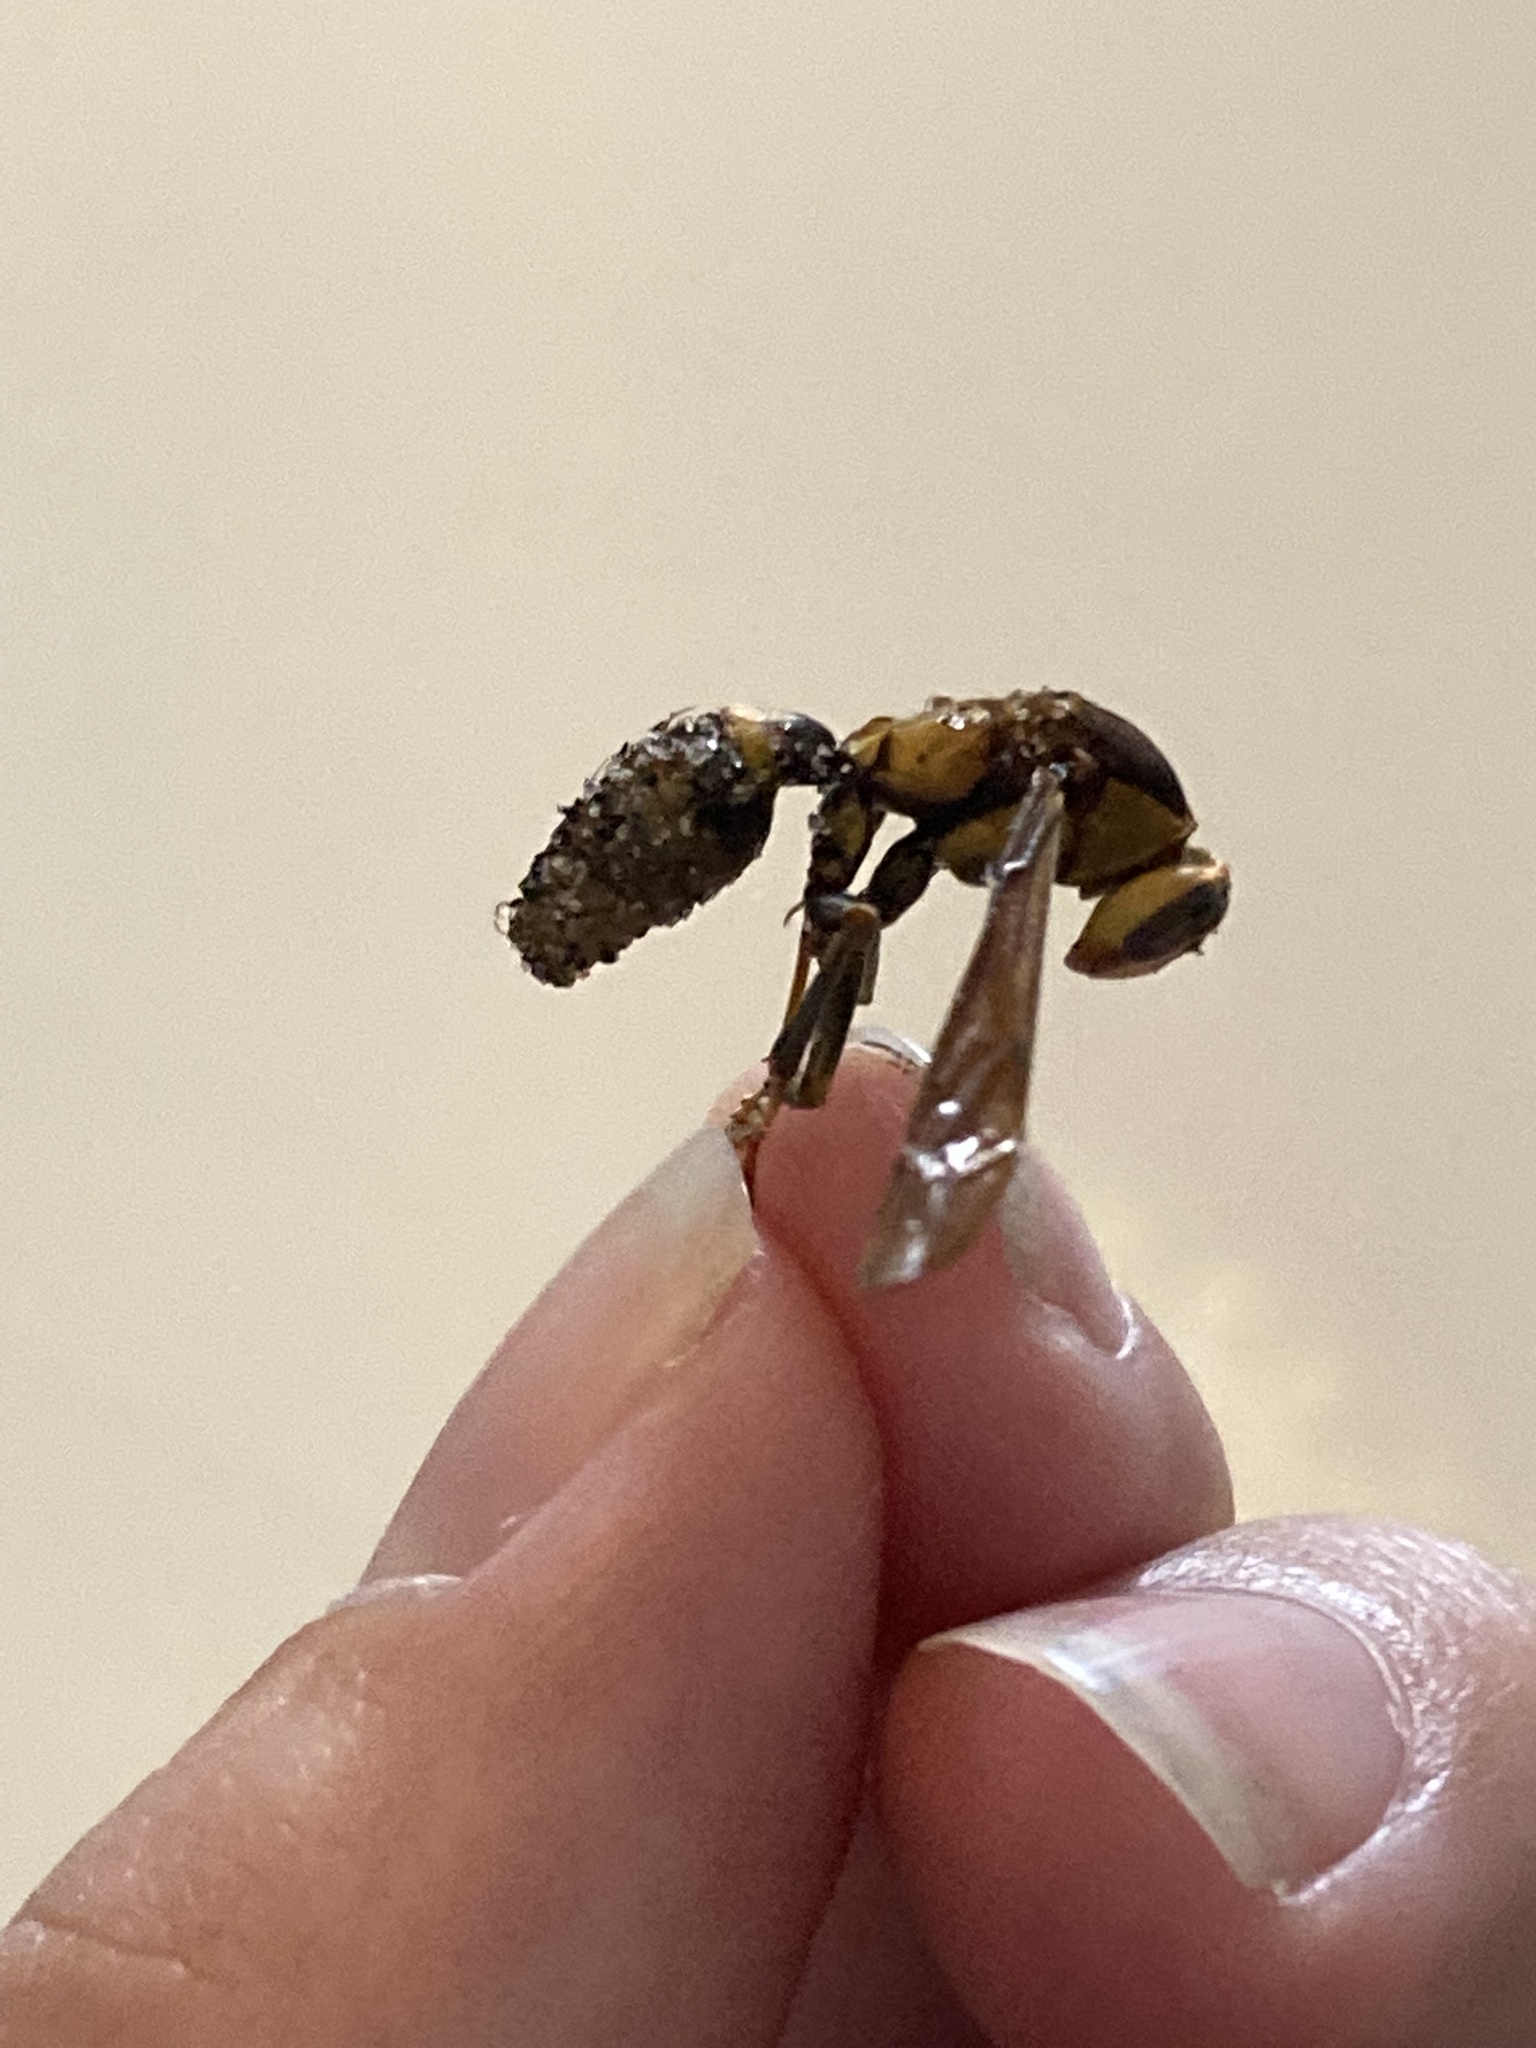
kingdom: Animalia
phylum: Arthropoda
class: Insecta
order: Hymenoptera
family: Eumenidae
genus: Polistes
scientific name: Polistes major
